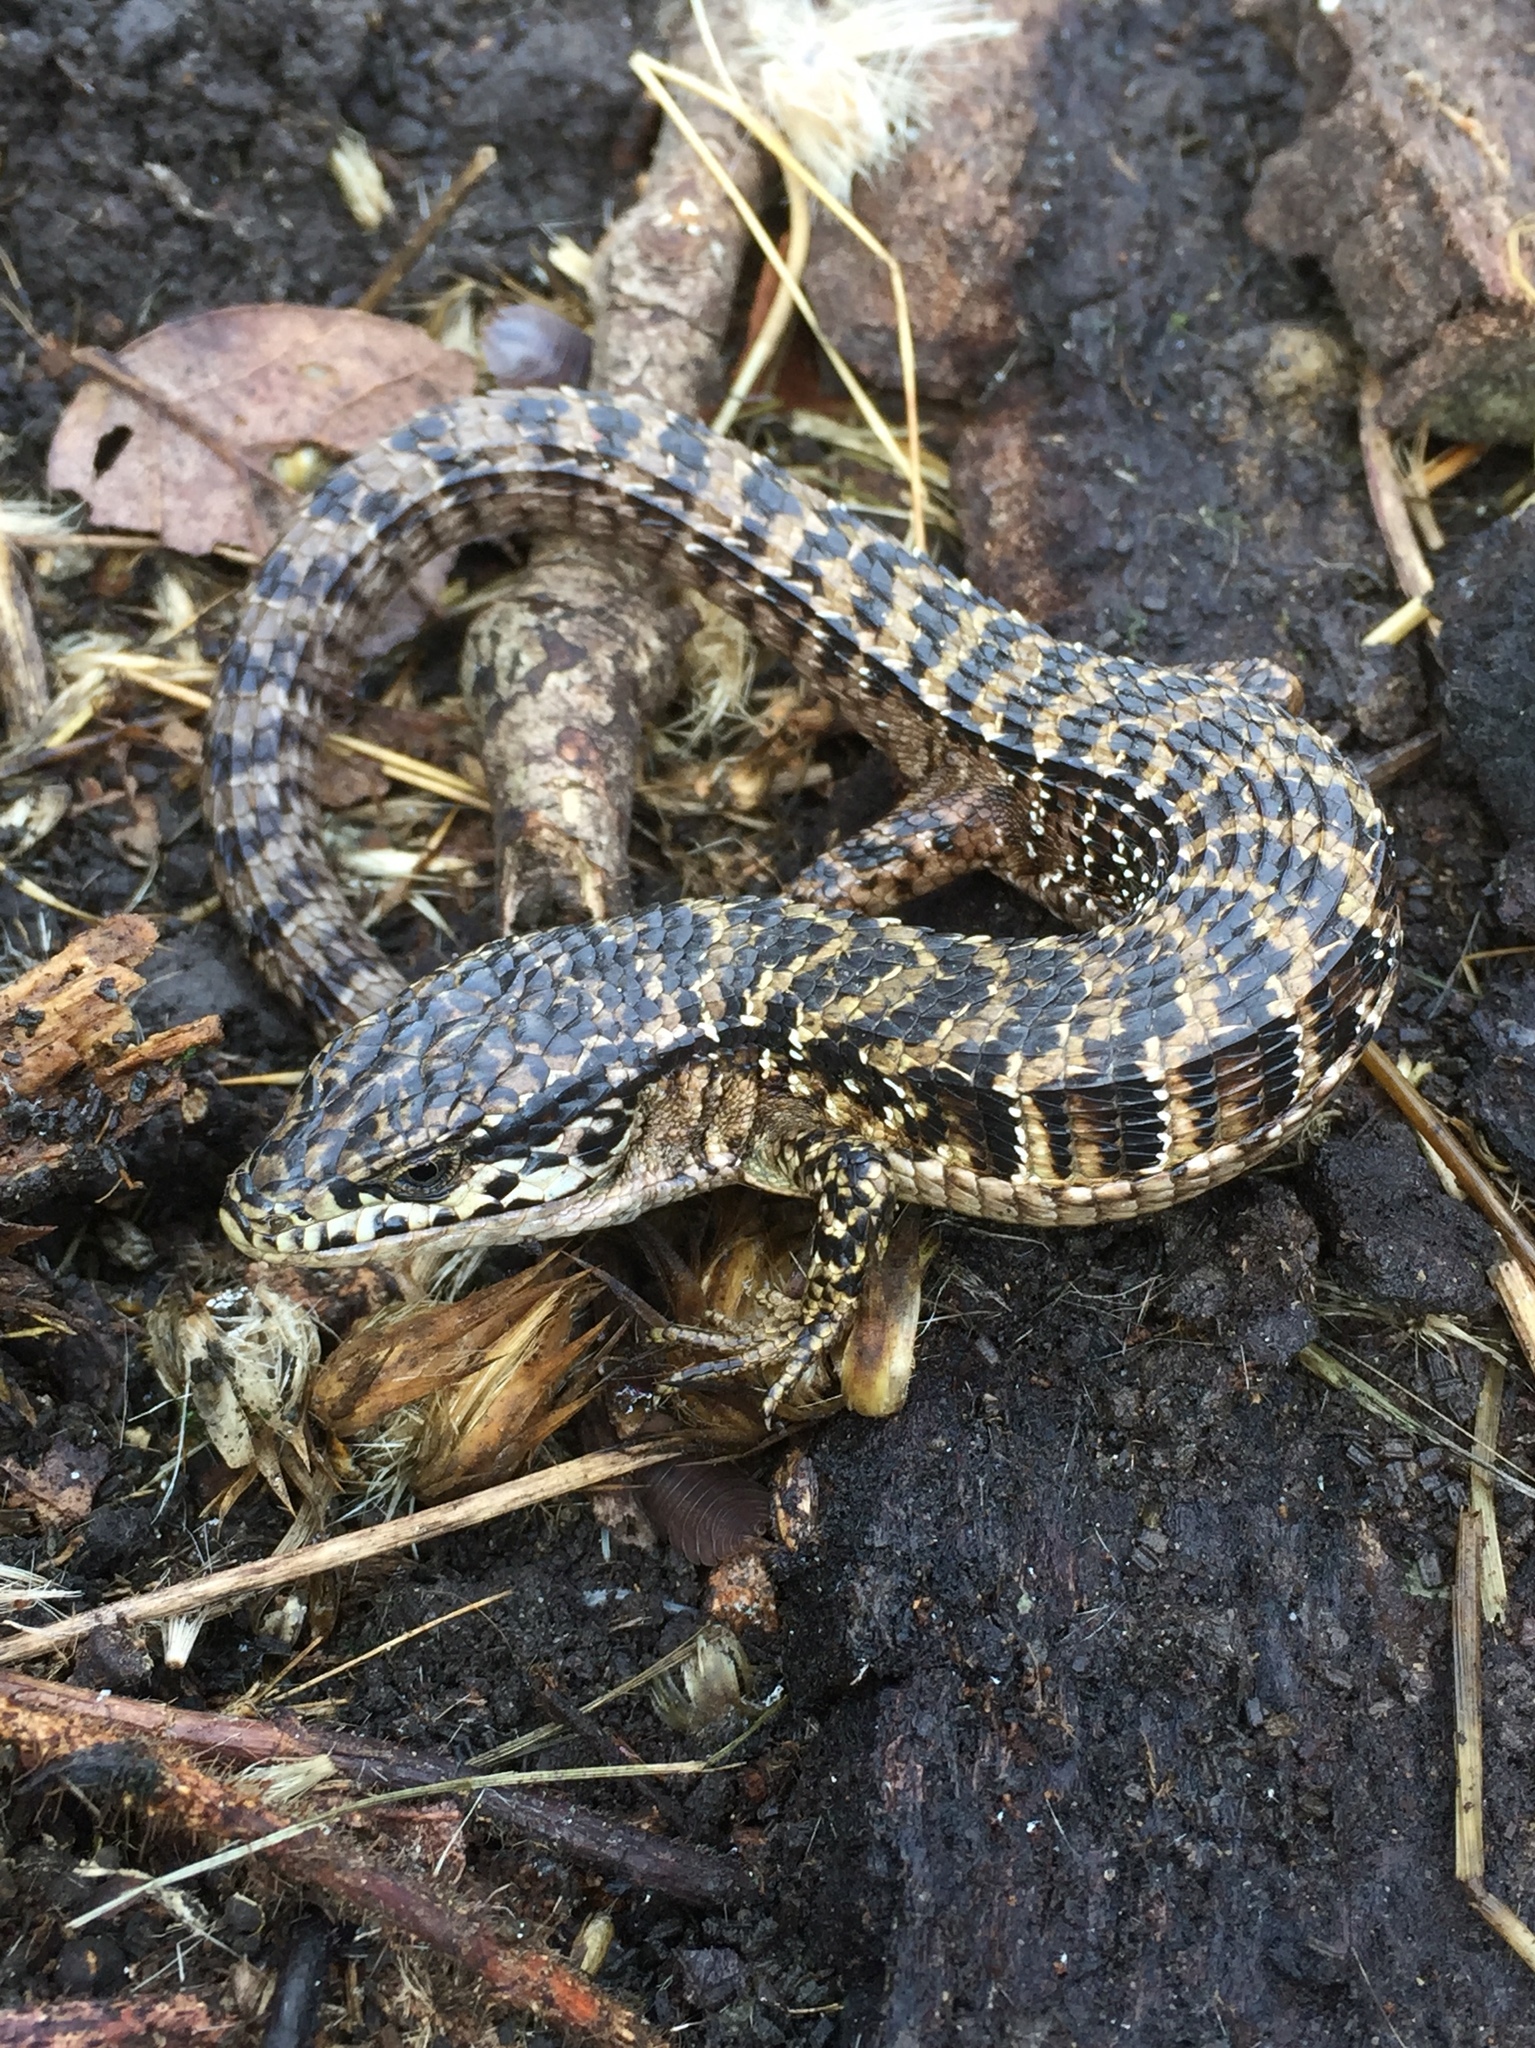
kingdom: Animalia
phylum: Chordata
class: Squamata
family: Anguidae
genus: Elgaria
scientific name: Elgaria coerulea
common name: Northern alligator lizard
